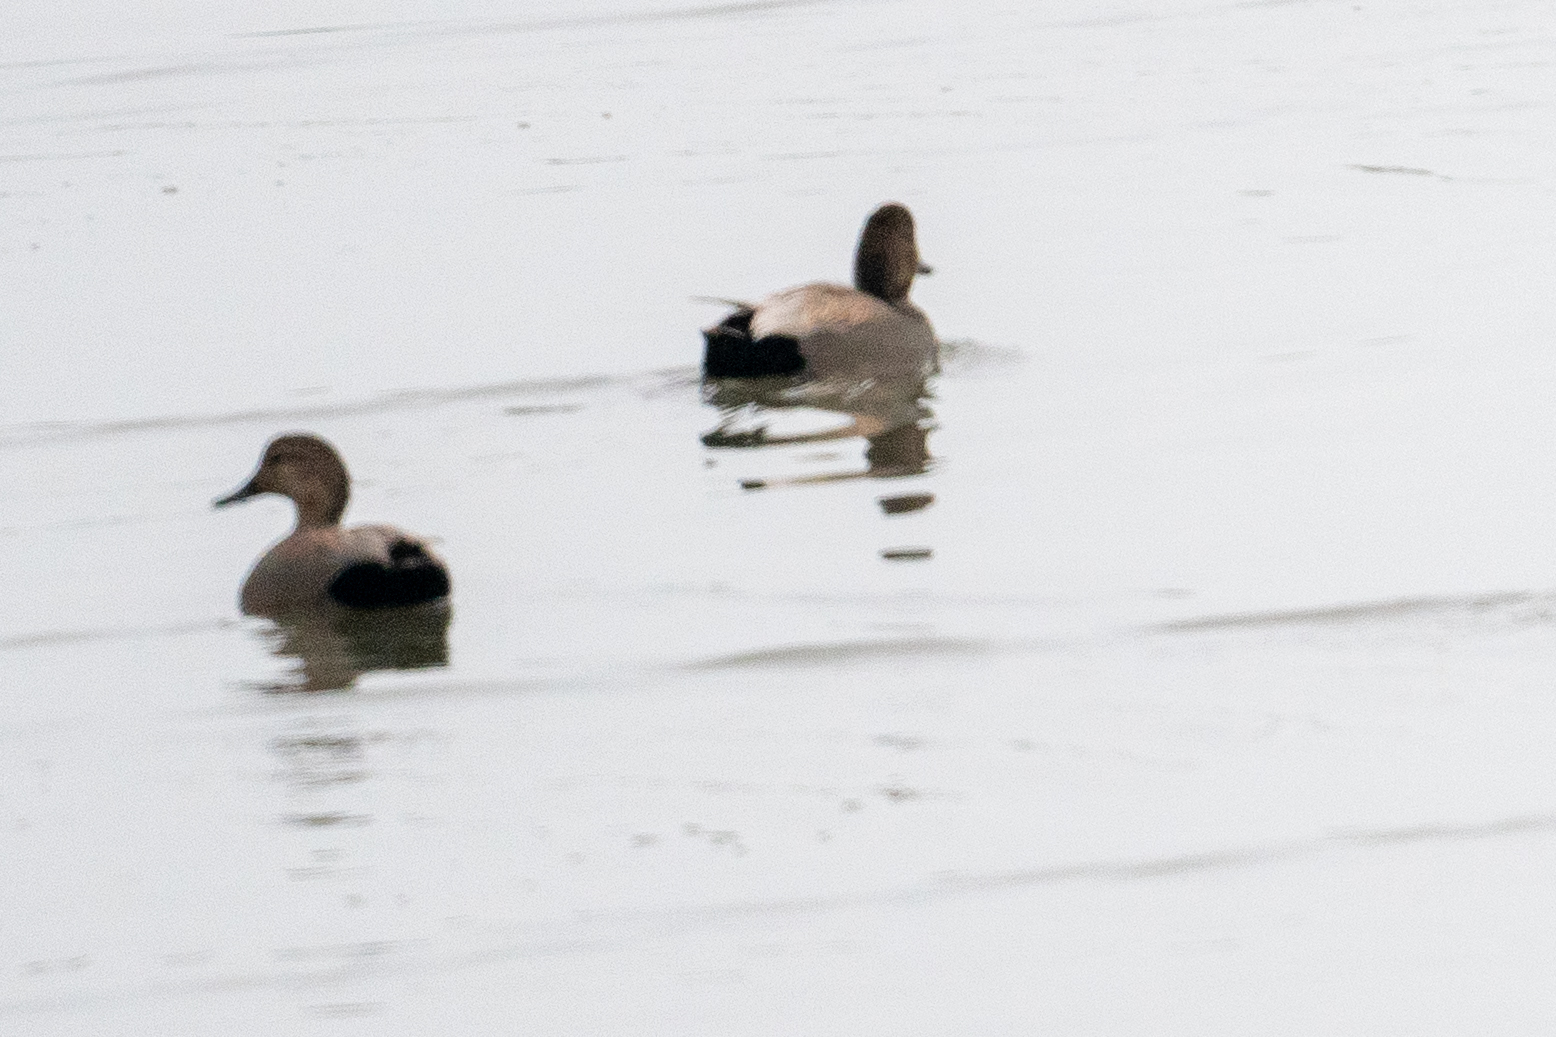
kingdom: Animalia
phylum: Chordata
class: Aves
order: Anseriformes
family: Anatidae
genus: Mareca
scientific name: Mareca strepera
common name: Gadwall
